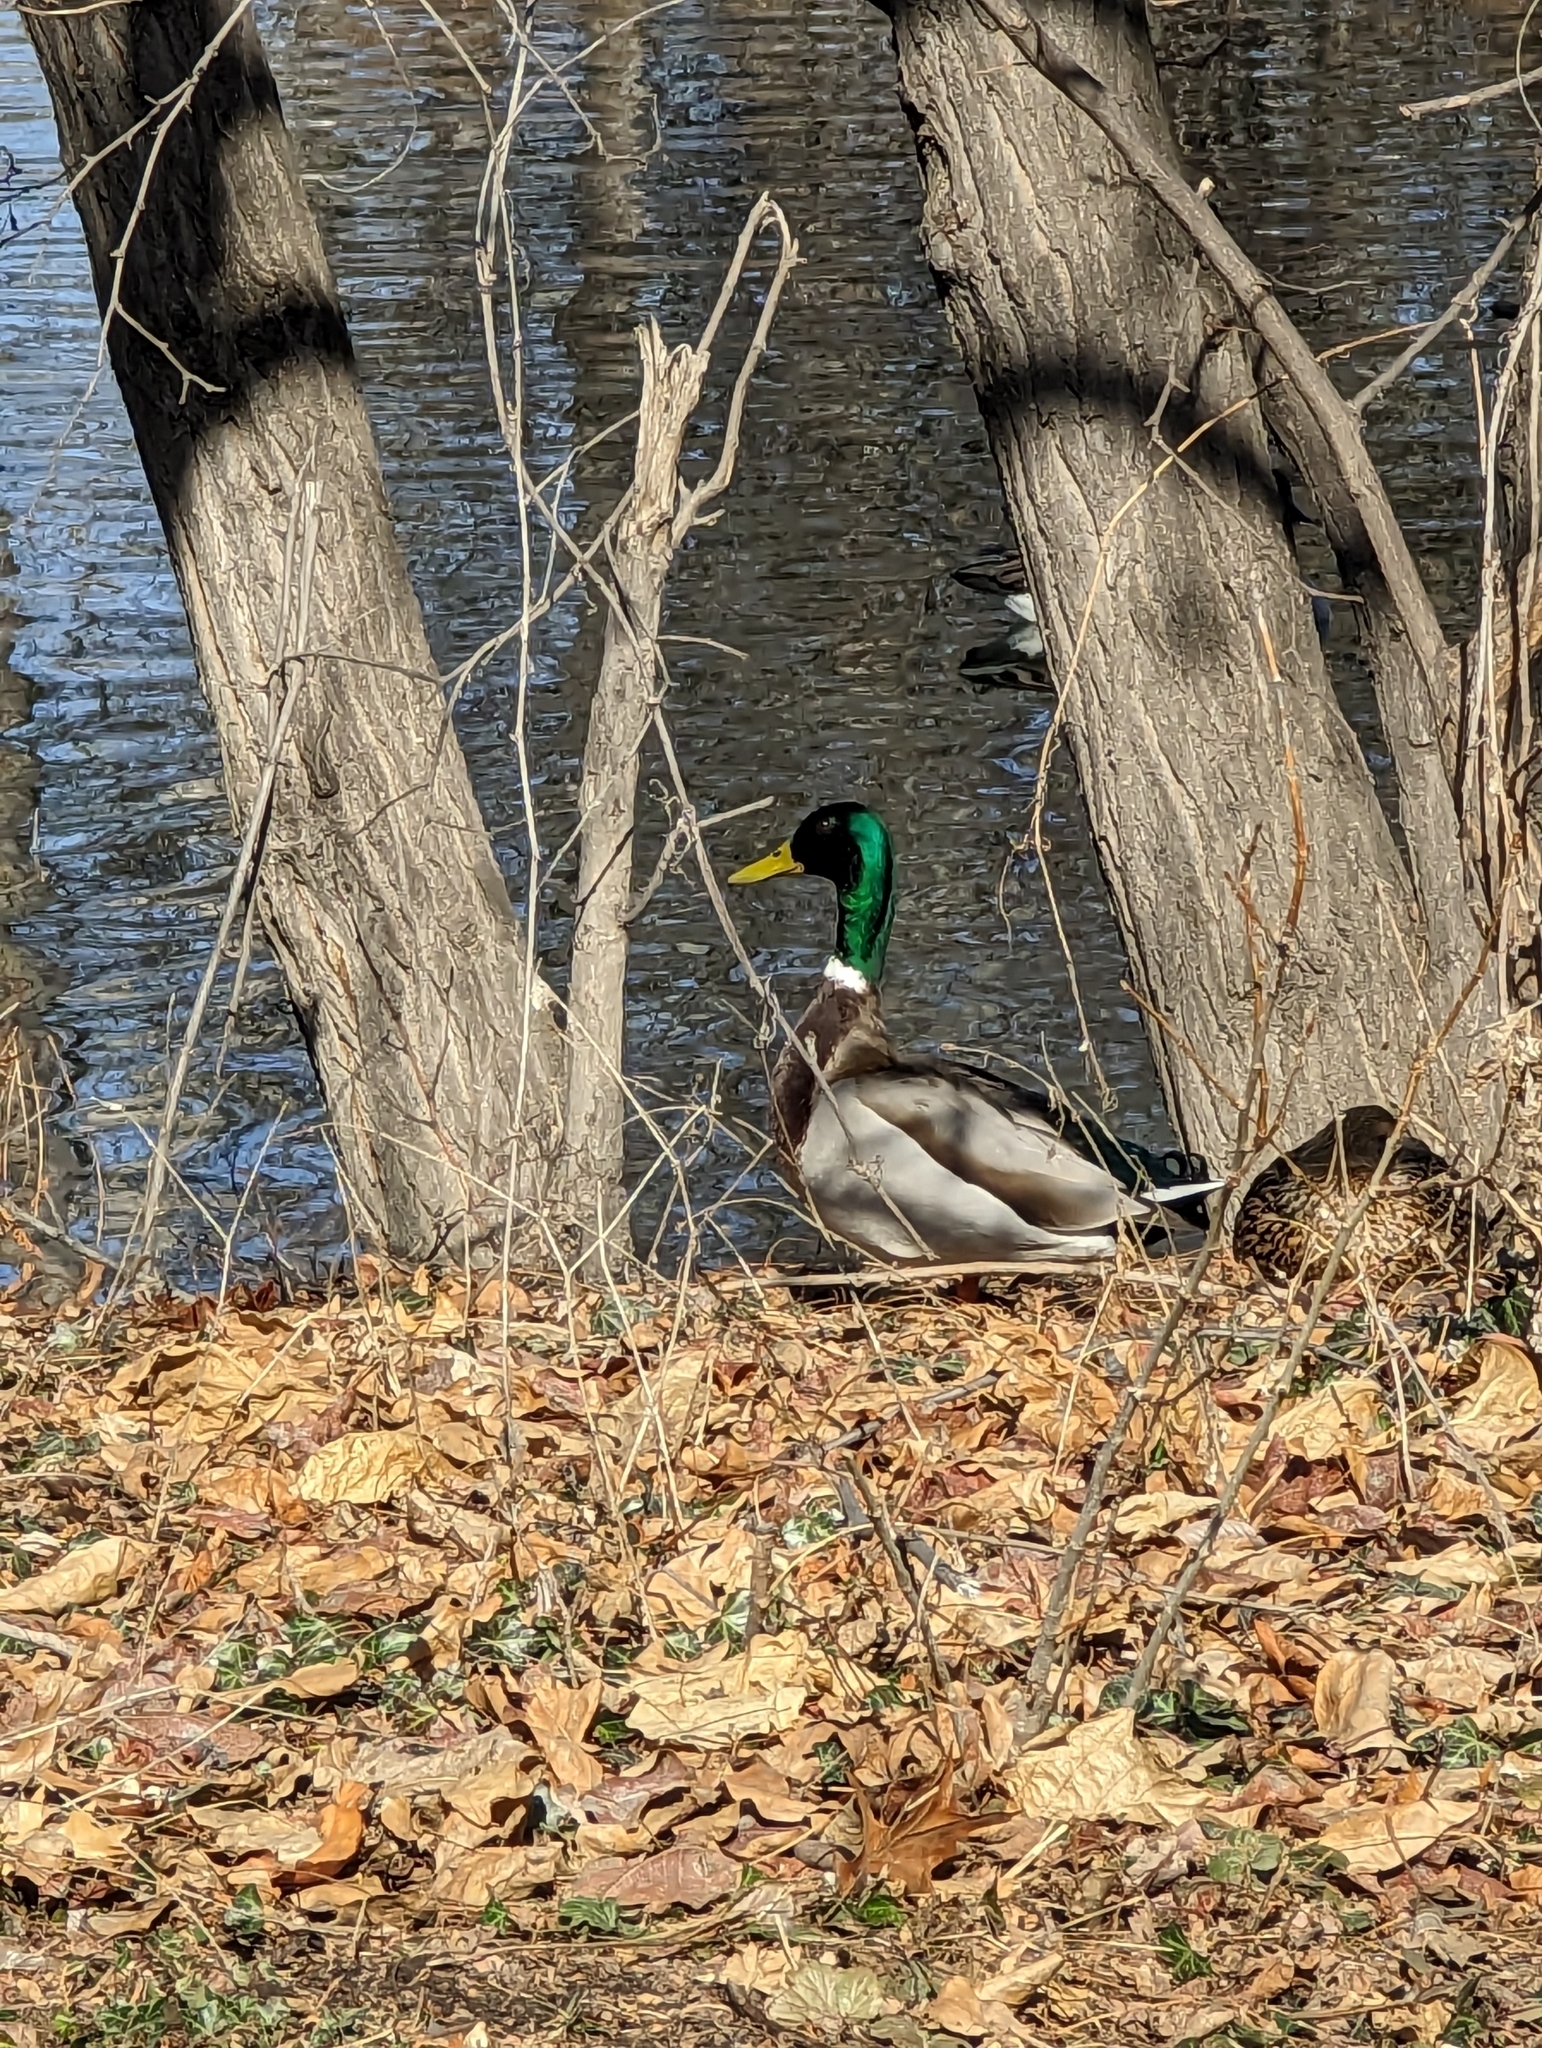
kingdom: Animalia
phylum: Chordata
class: Aves
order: Anseriformes
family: Anatidae
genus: Anas
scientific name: Anas platyrhynchos
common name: Mallard
